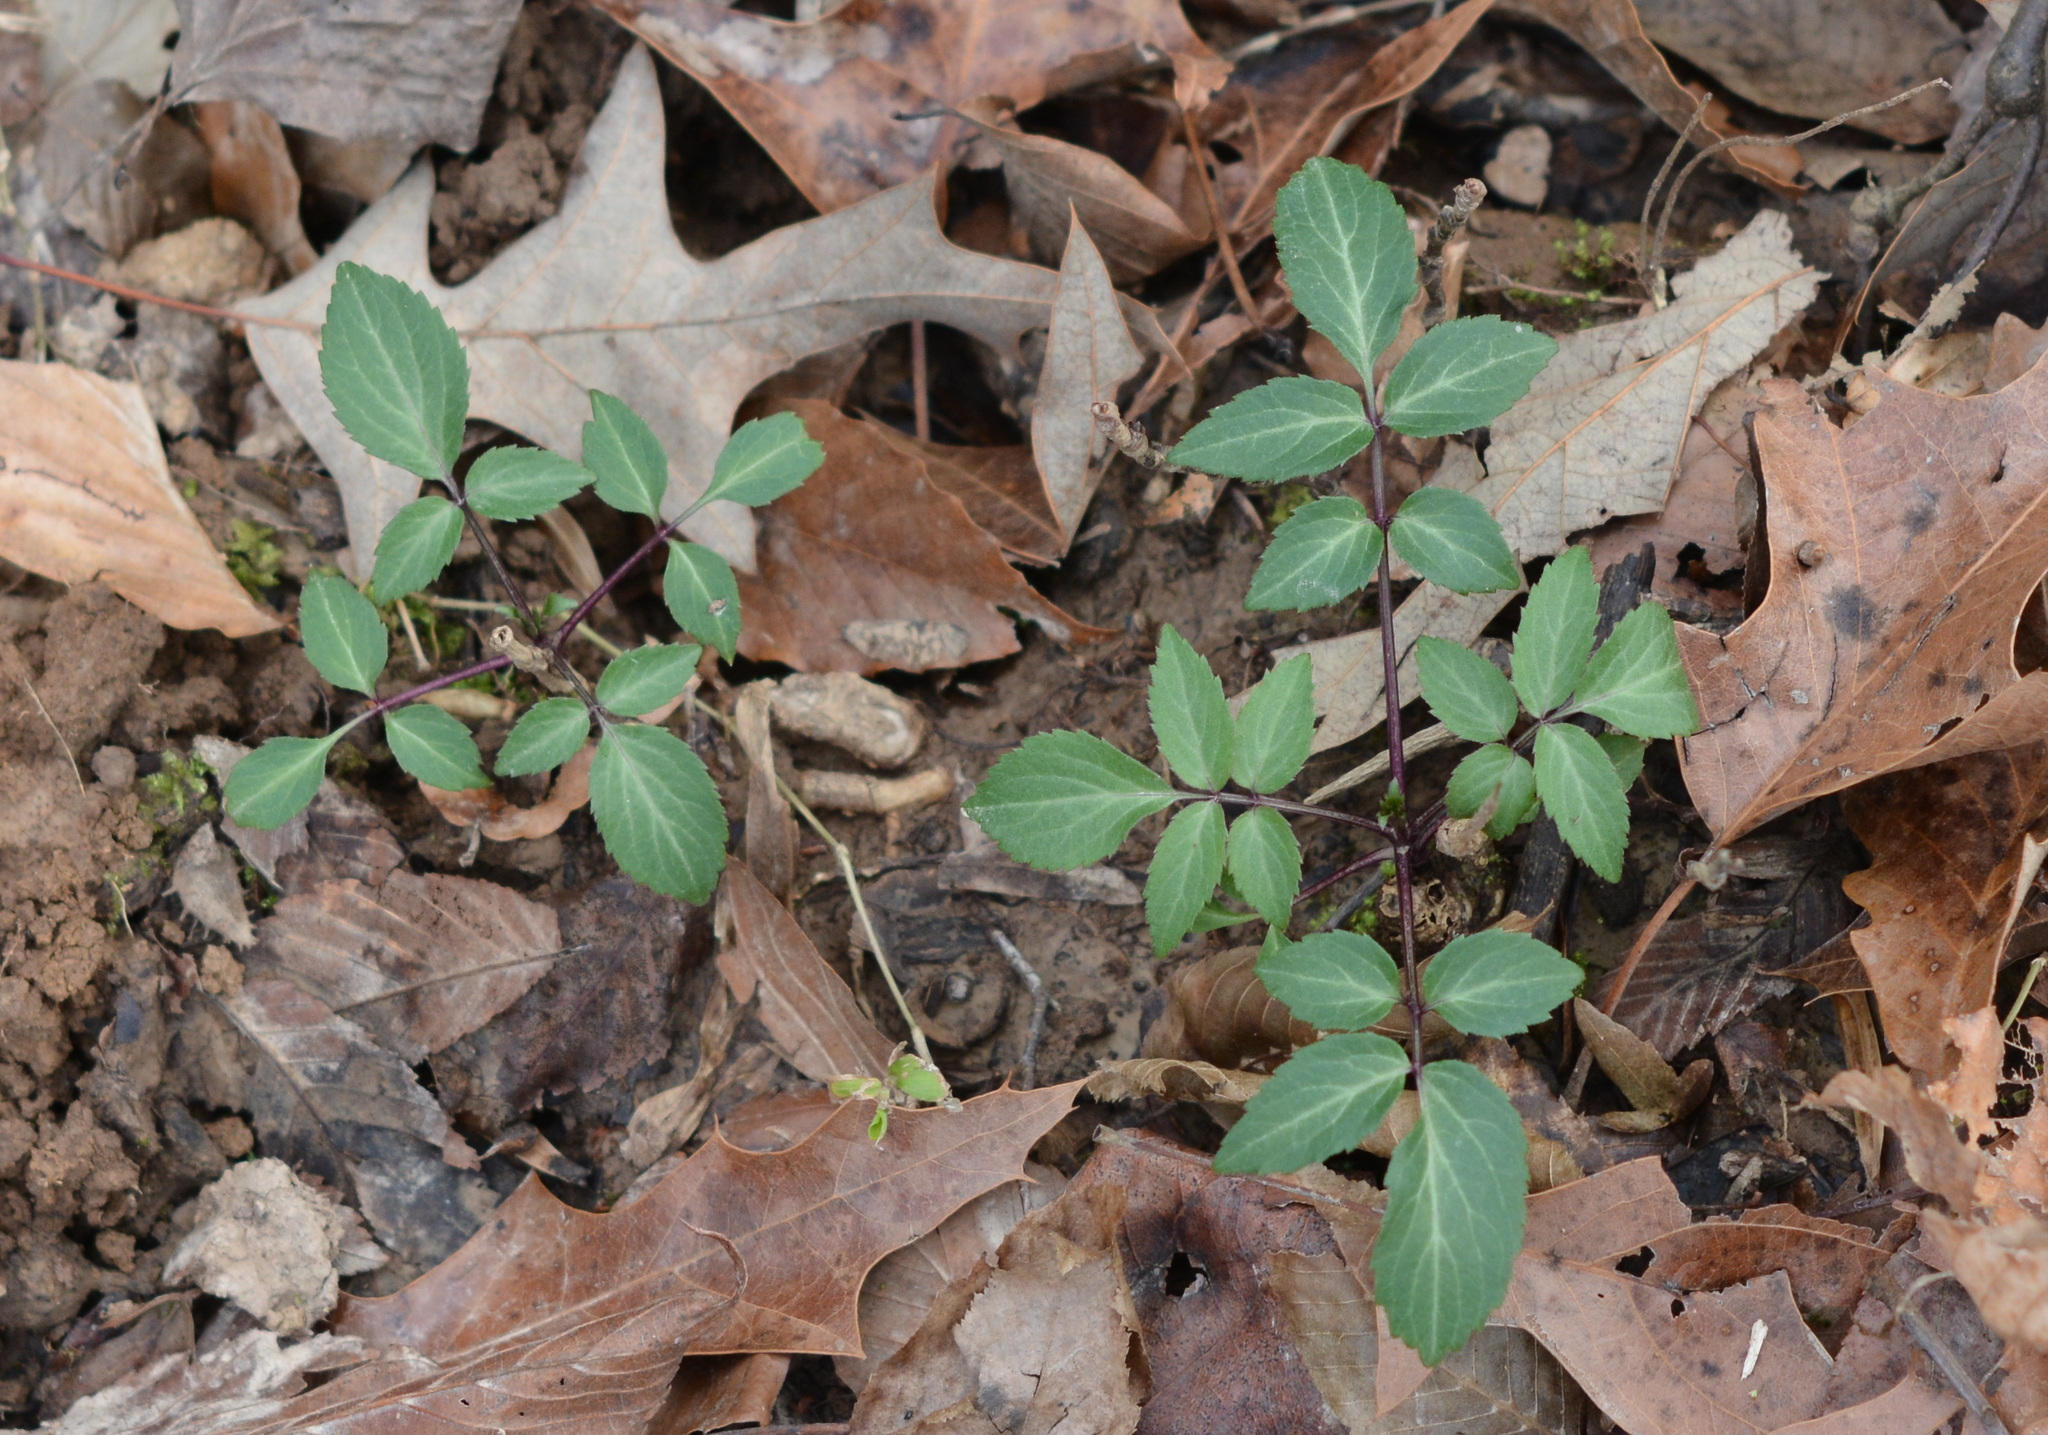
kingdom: Plantae
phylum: Tracheophyta
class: Magnoliopsida
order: Dipsacales
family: Viburnaceae
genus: Sambucus
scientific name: Sambucus canadensis
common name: American elder
